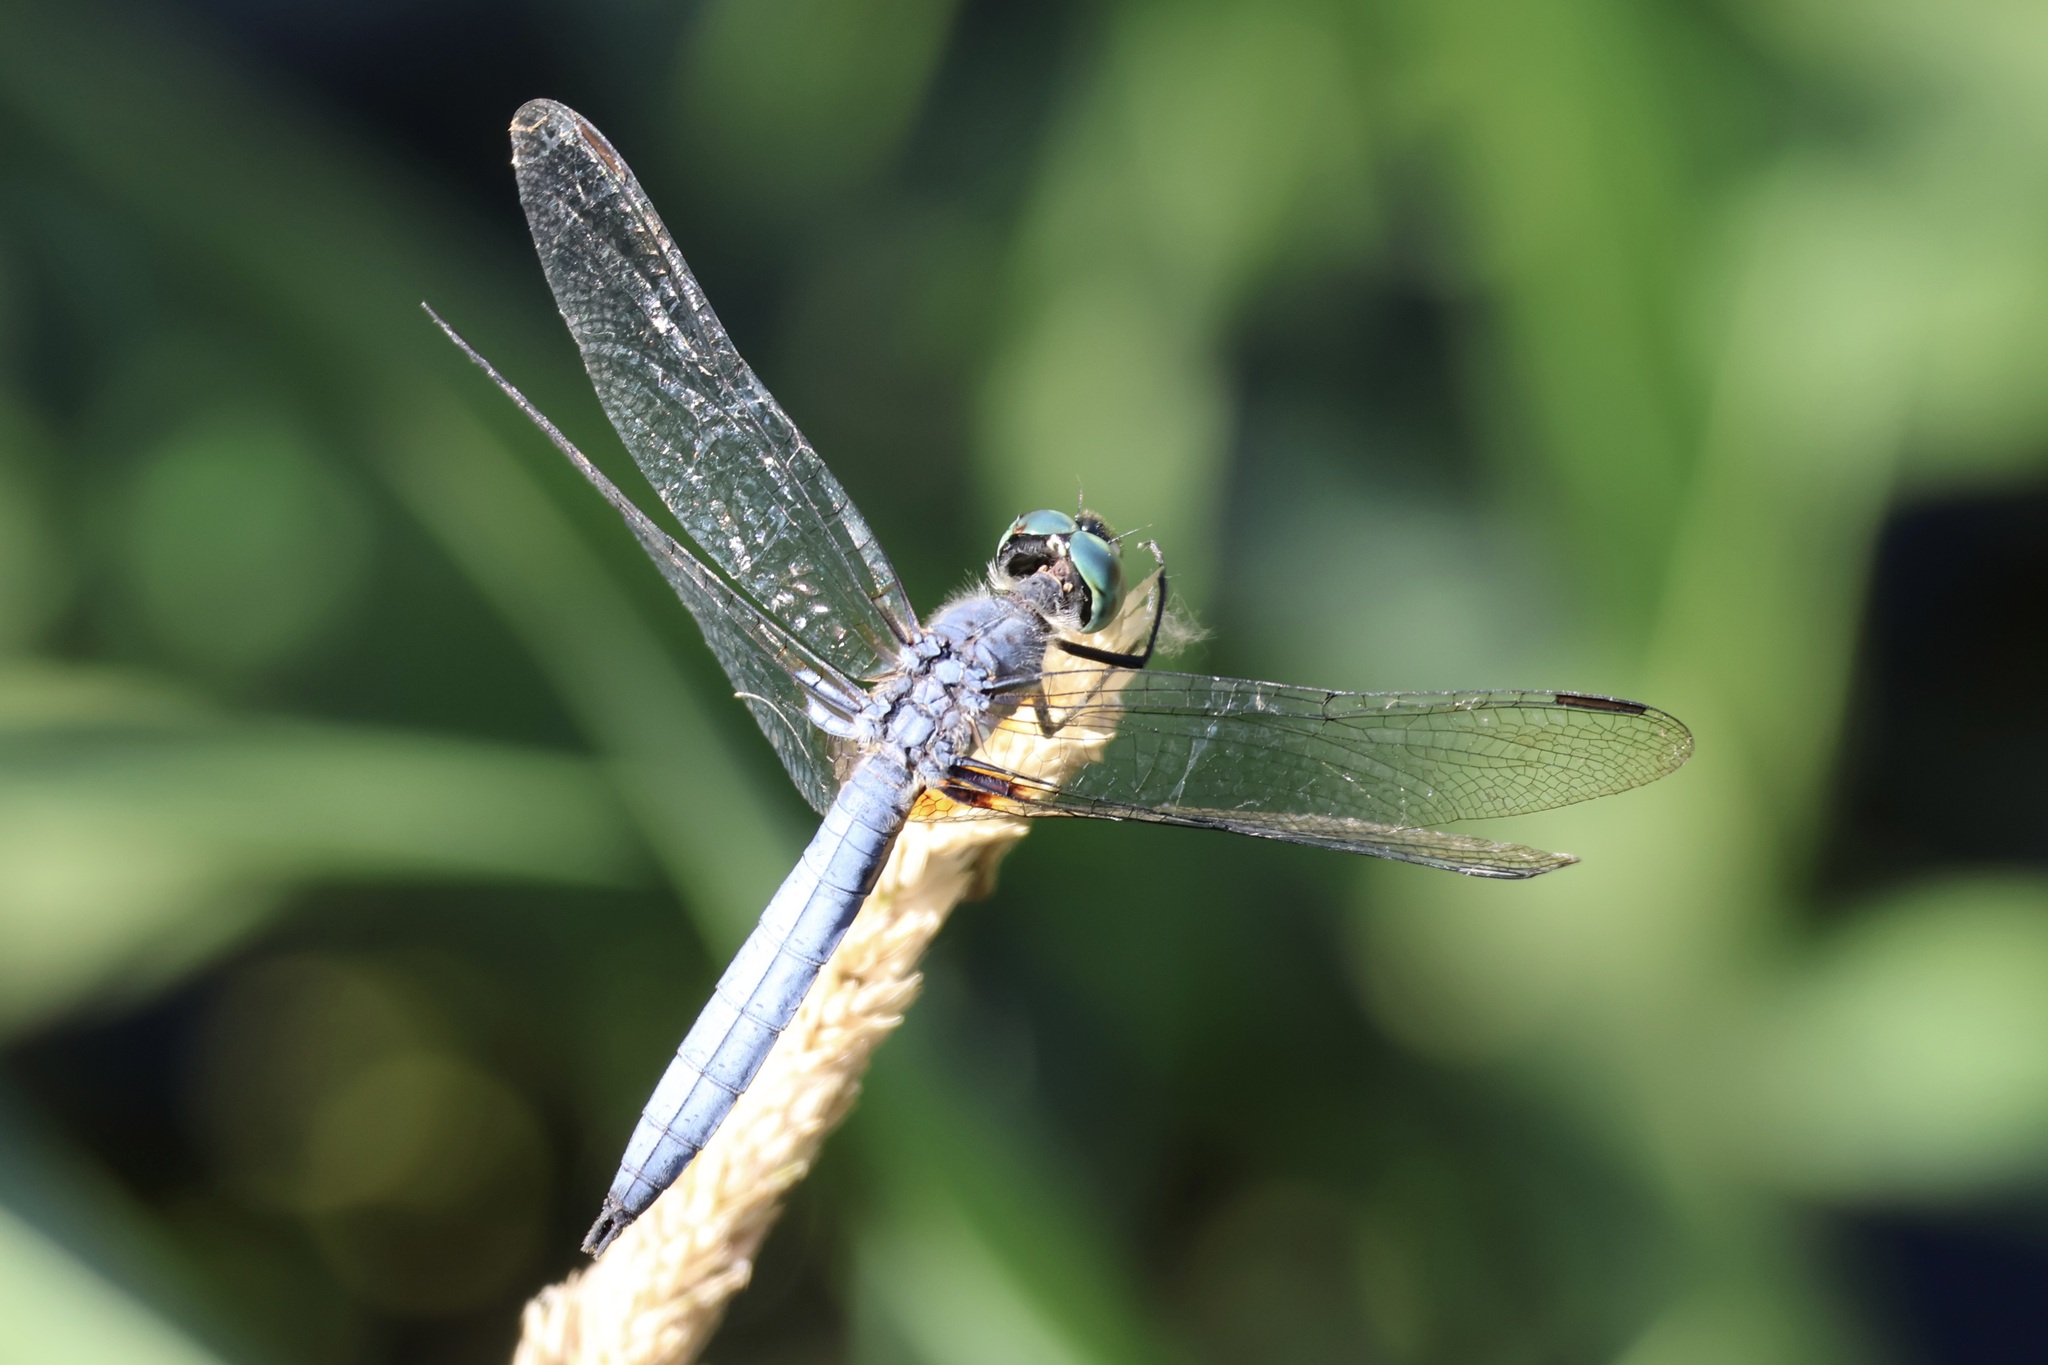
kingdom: Animalia
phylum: Arthropoda
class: Insecta
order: Odonata
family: Libellulidae
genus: Pachydiplax
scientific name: Pachydiplax longipennis
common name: Blue dasher
